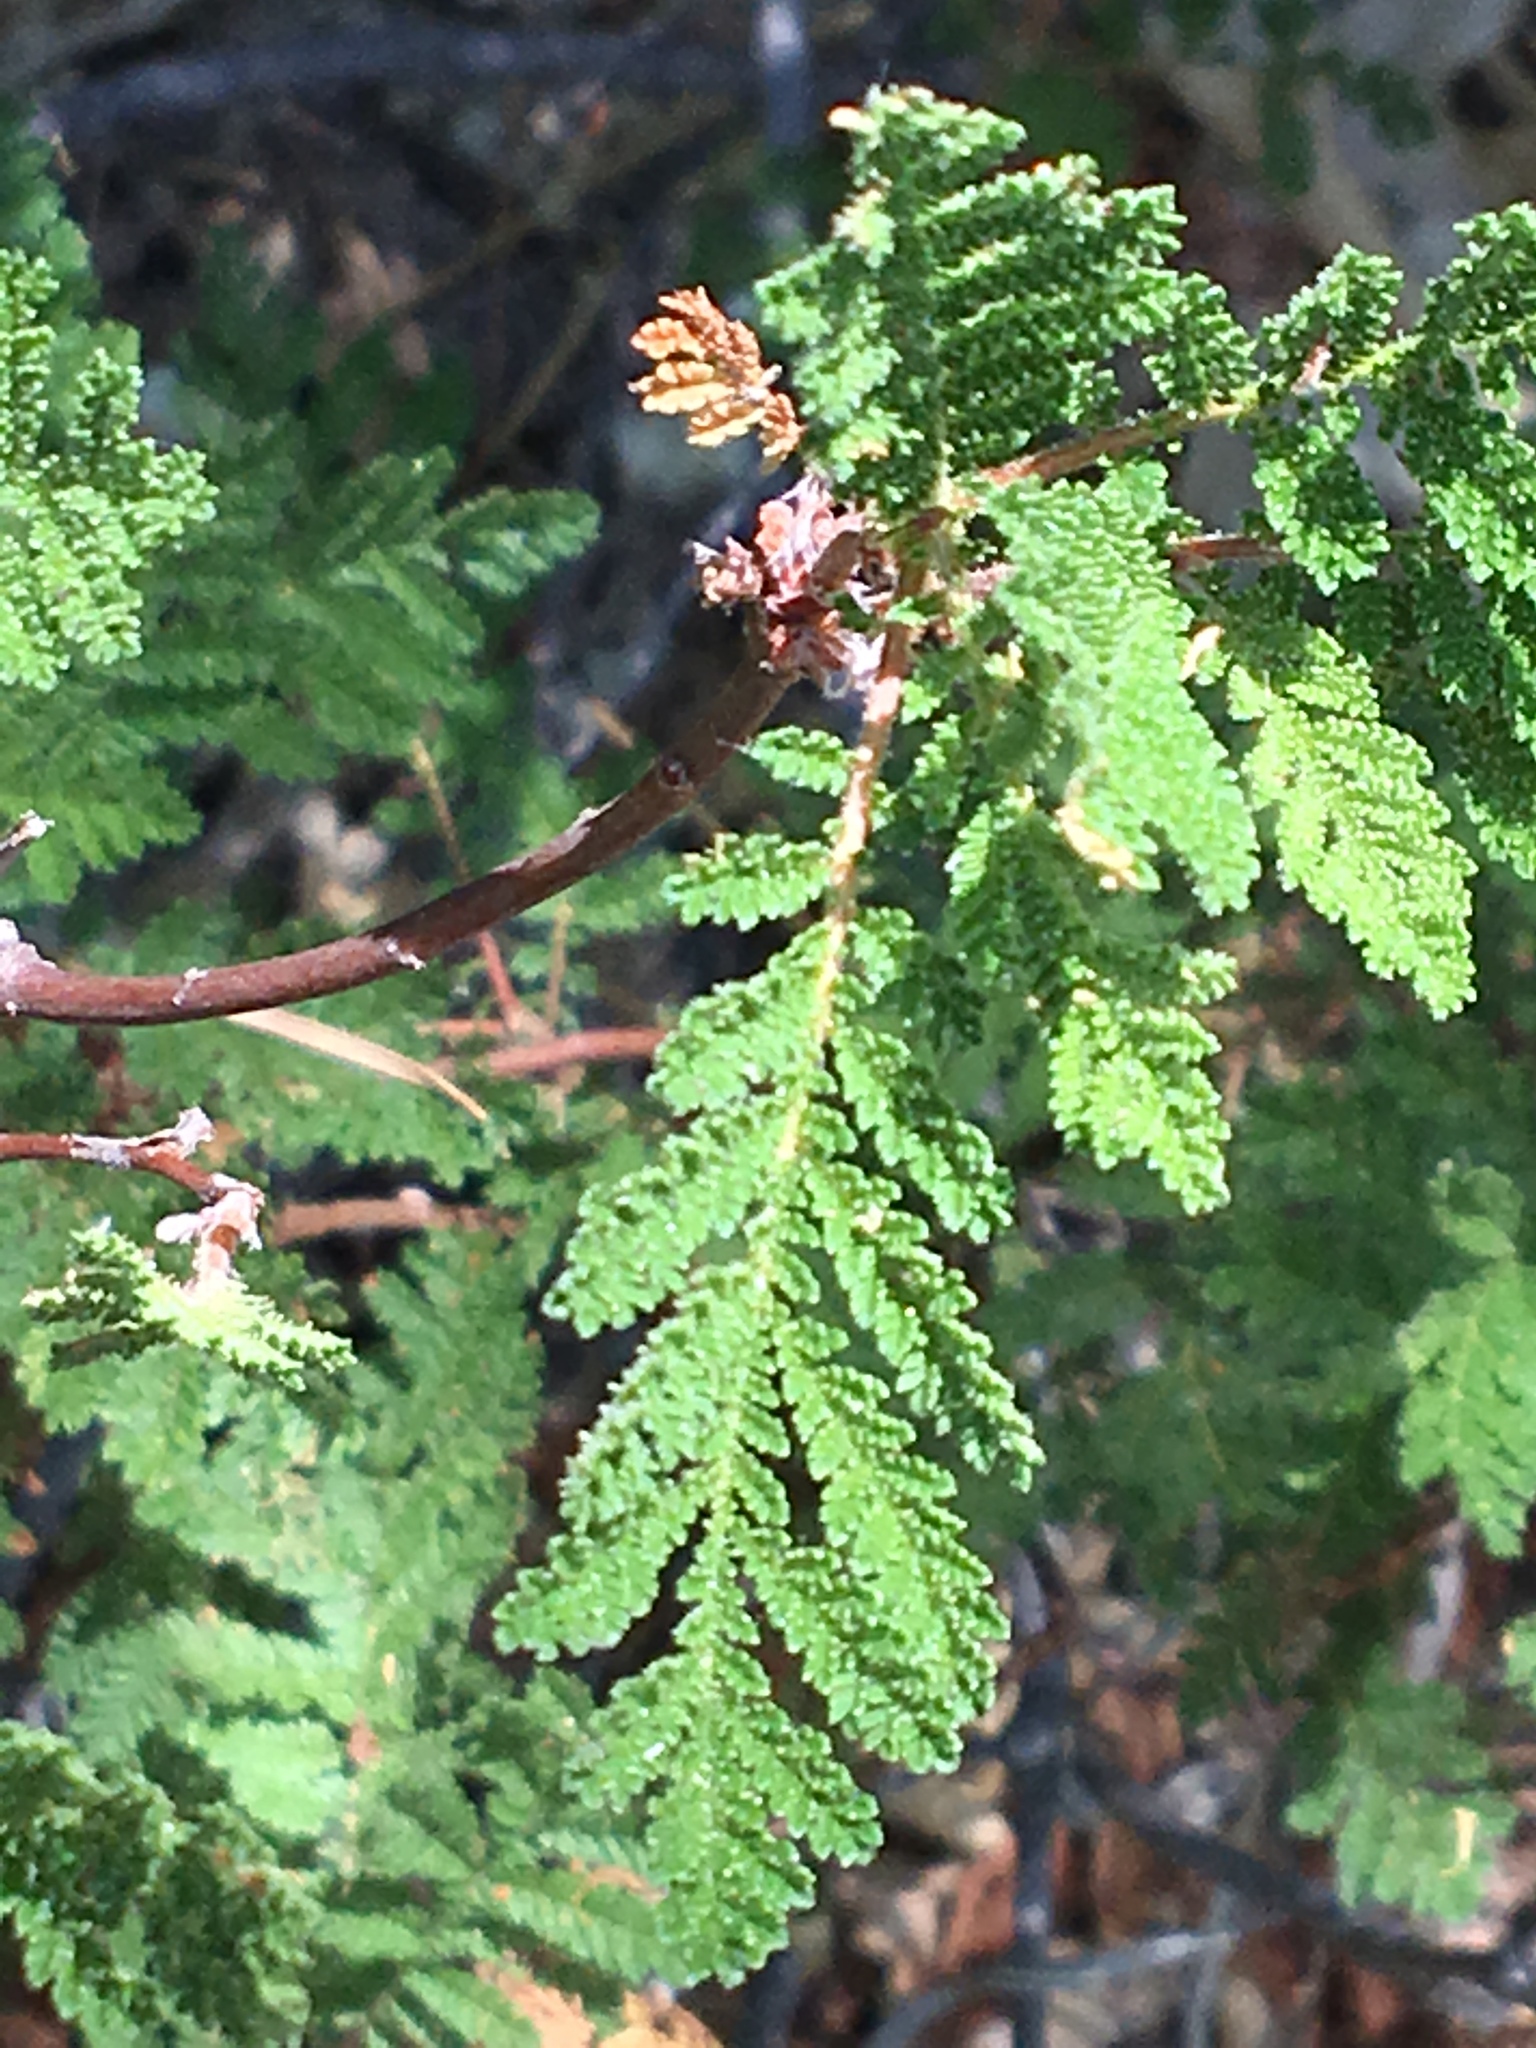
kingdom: Plantae
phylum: Tracheophyta
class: Magnoliopsida
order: Rosales
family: Rosaceae
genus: Chamaebatia
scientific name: Chamaebatia foliolosa
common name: Mountain misery
